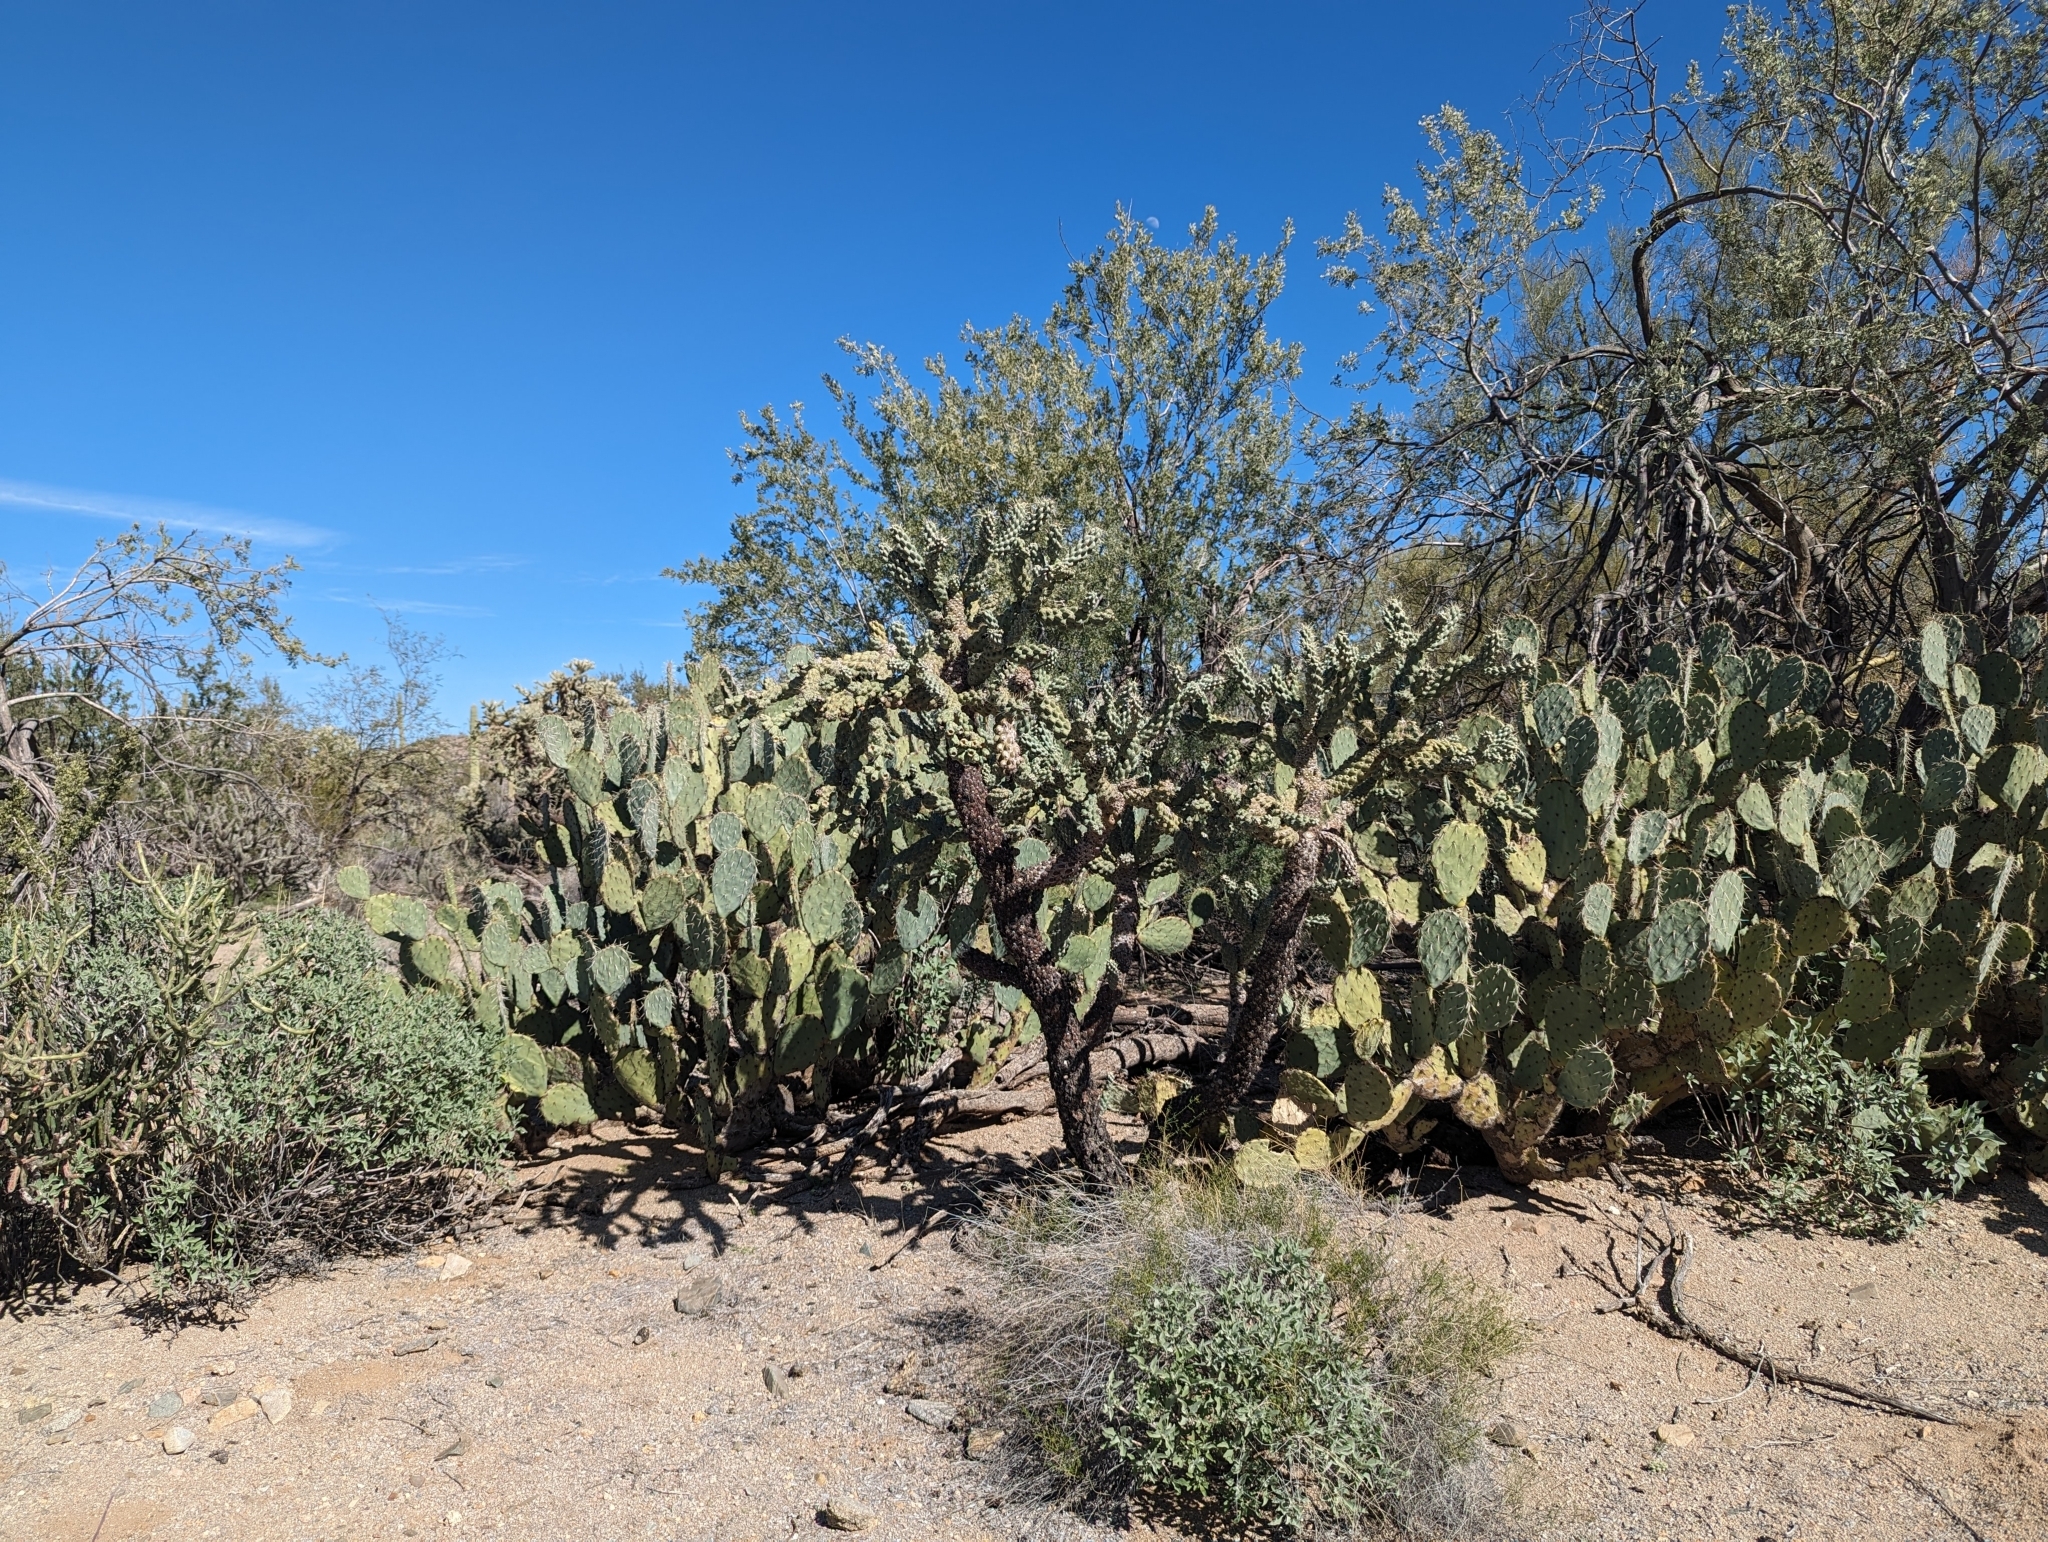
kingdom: Plantae
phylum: Tracheophyta
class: Magnoliopsida
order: Caryophyllales
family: Cactaceae
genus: Cylindropuntia
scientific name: Cylindropuntia fulgida
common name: Jumping cholla
